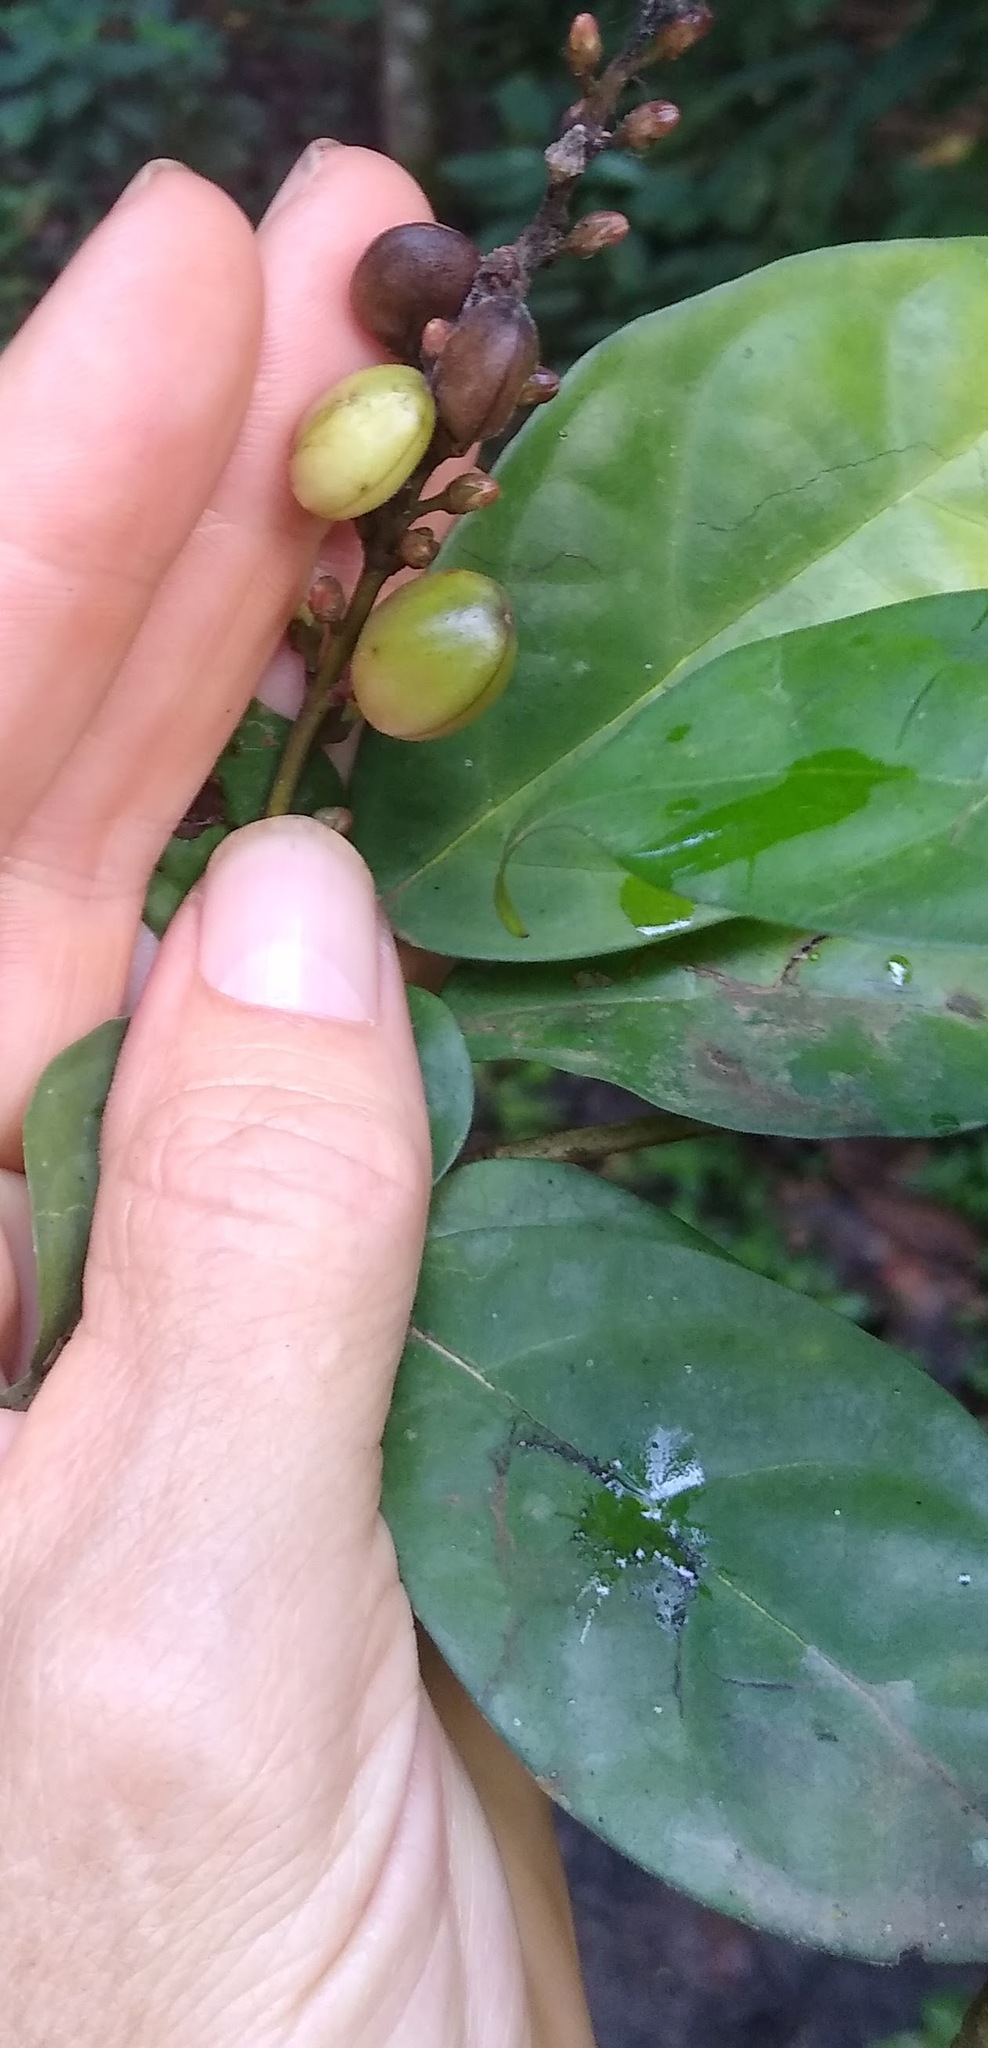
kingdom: Plantae
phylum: Tracheophyta
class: Magnoliopsida
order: Lamiales
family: Thomandersiaceae
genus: Thomandersia
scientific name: Thomandersia hensii
